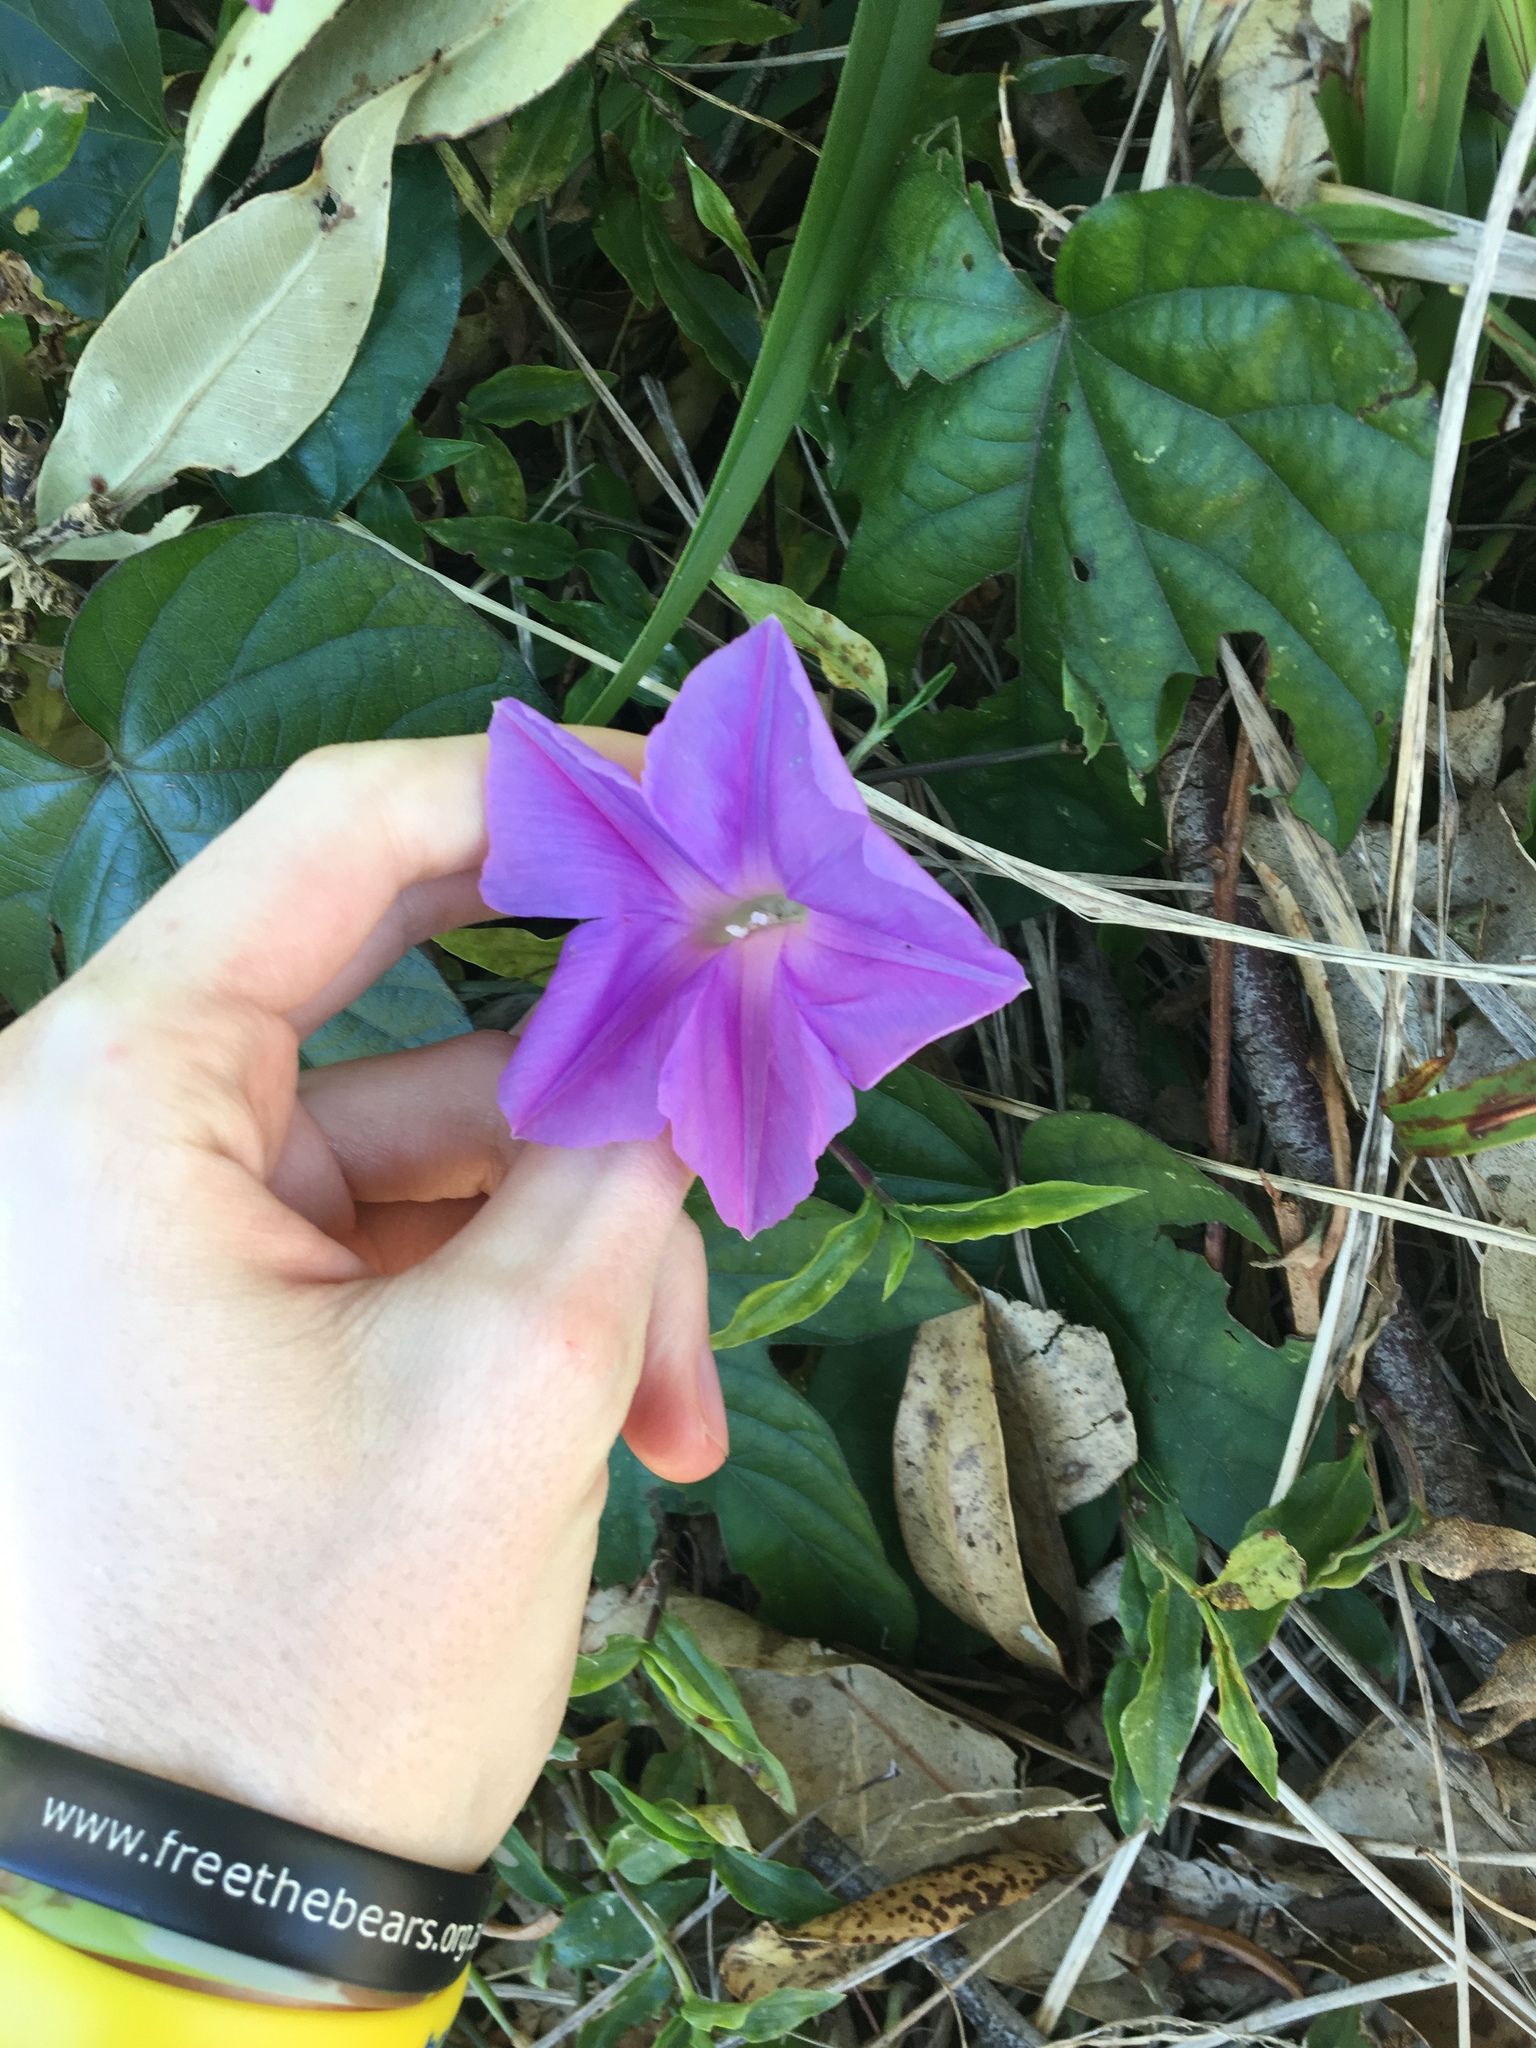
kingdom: Plantae
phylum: Tracheophyta
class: Magnoliopsida
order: Solanales
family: Convolvulaceae
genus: Ipomoea
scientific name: Ipomoea indica
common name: Blue dawnflower
